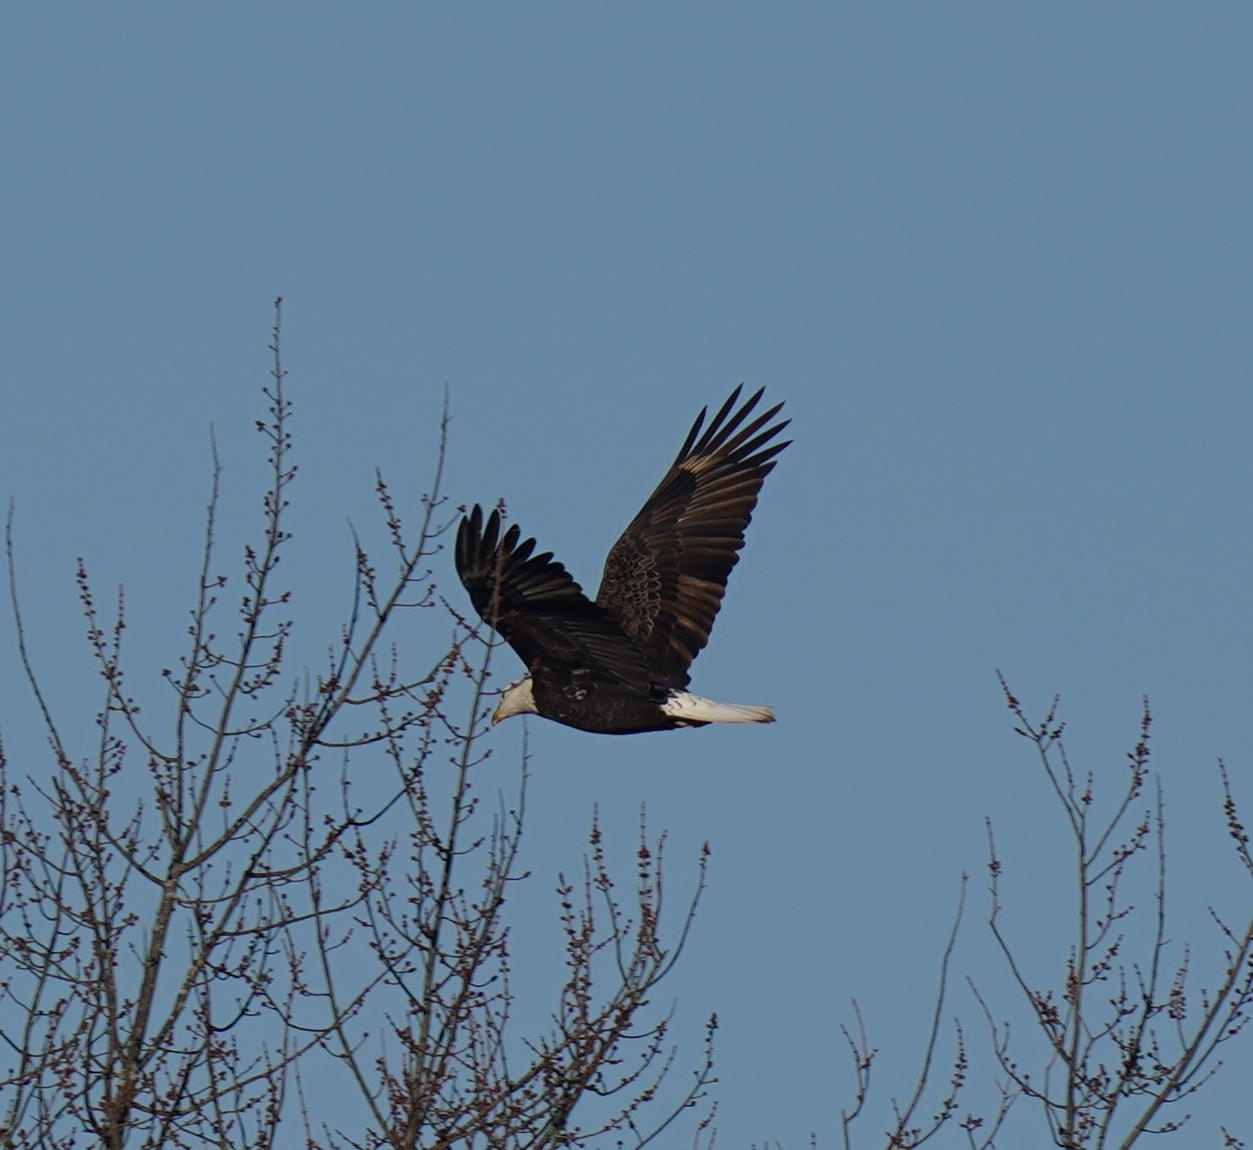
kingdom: Animalia
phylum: Chordata
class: Aves
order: Accipitriformes
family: Accipitridae
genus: Haliaeetus
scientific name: Haliaeetus leucocephalus
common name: Bald eagle
